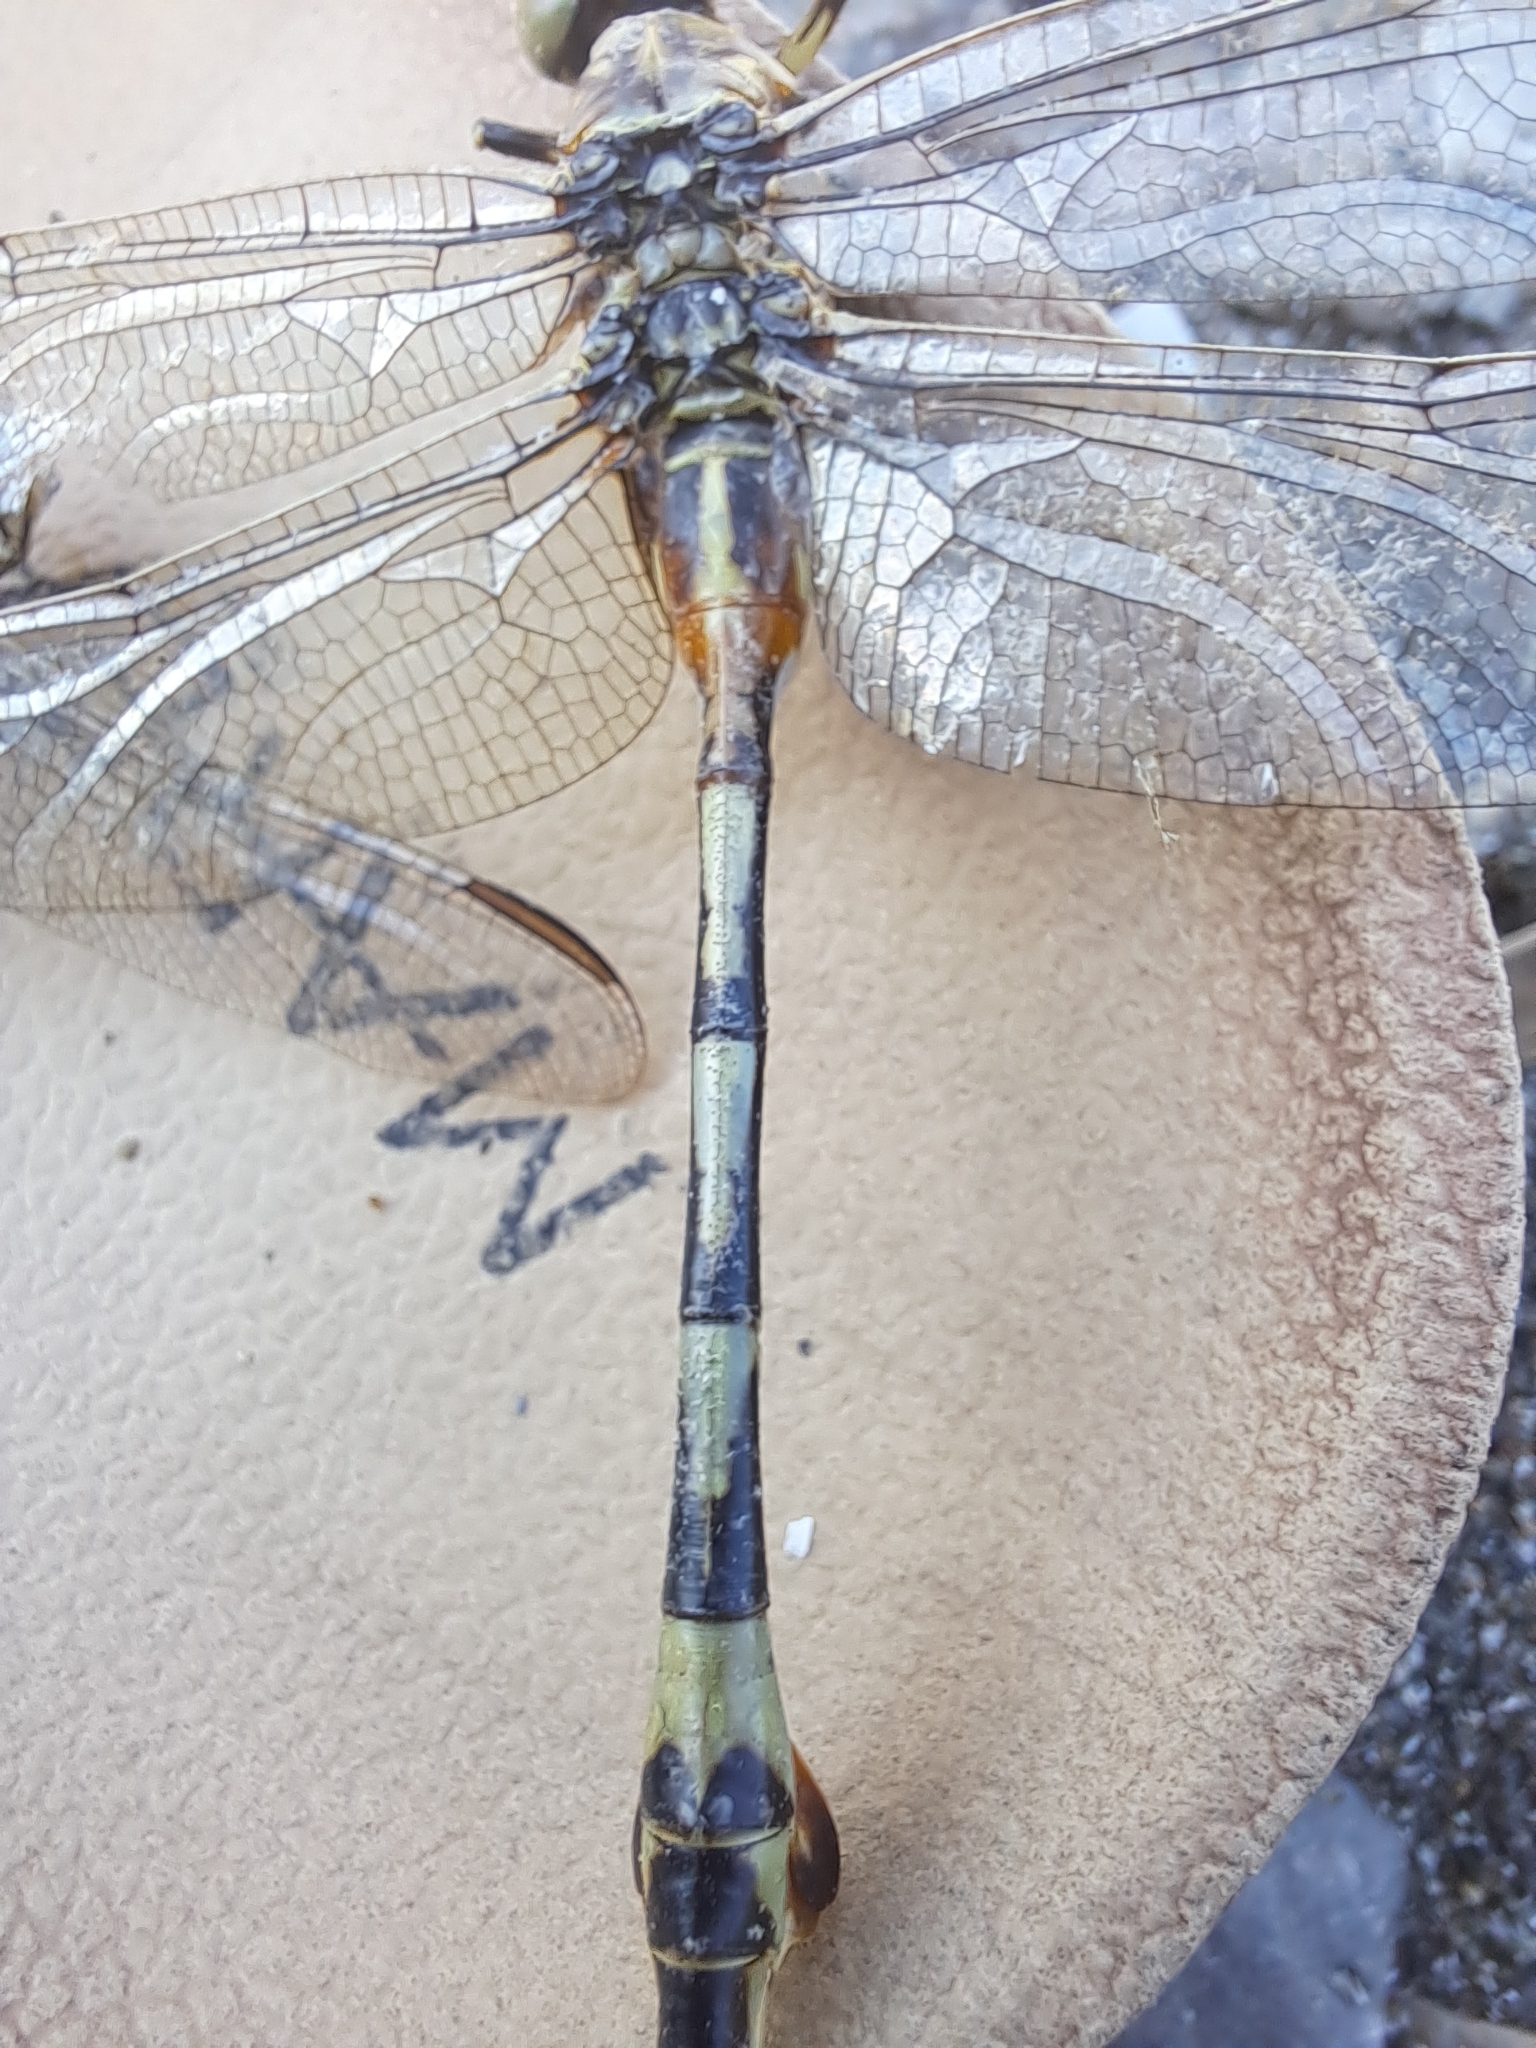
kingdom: Animalia
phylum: Arthropoda
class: Insecta
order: Odonata
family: Gomphidae
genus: Lindenia
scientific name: Lindenia tetraphylla
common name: Bladetail
